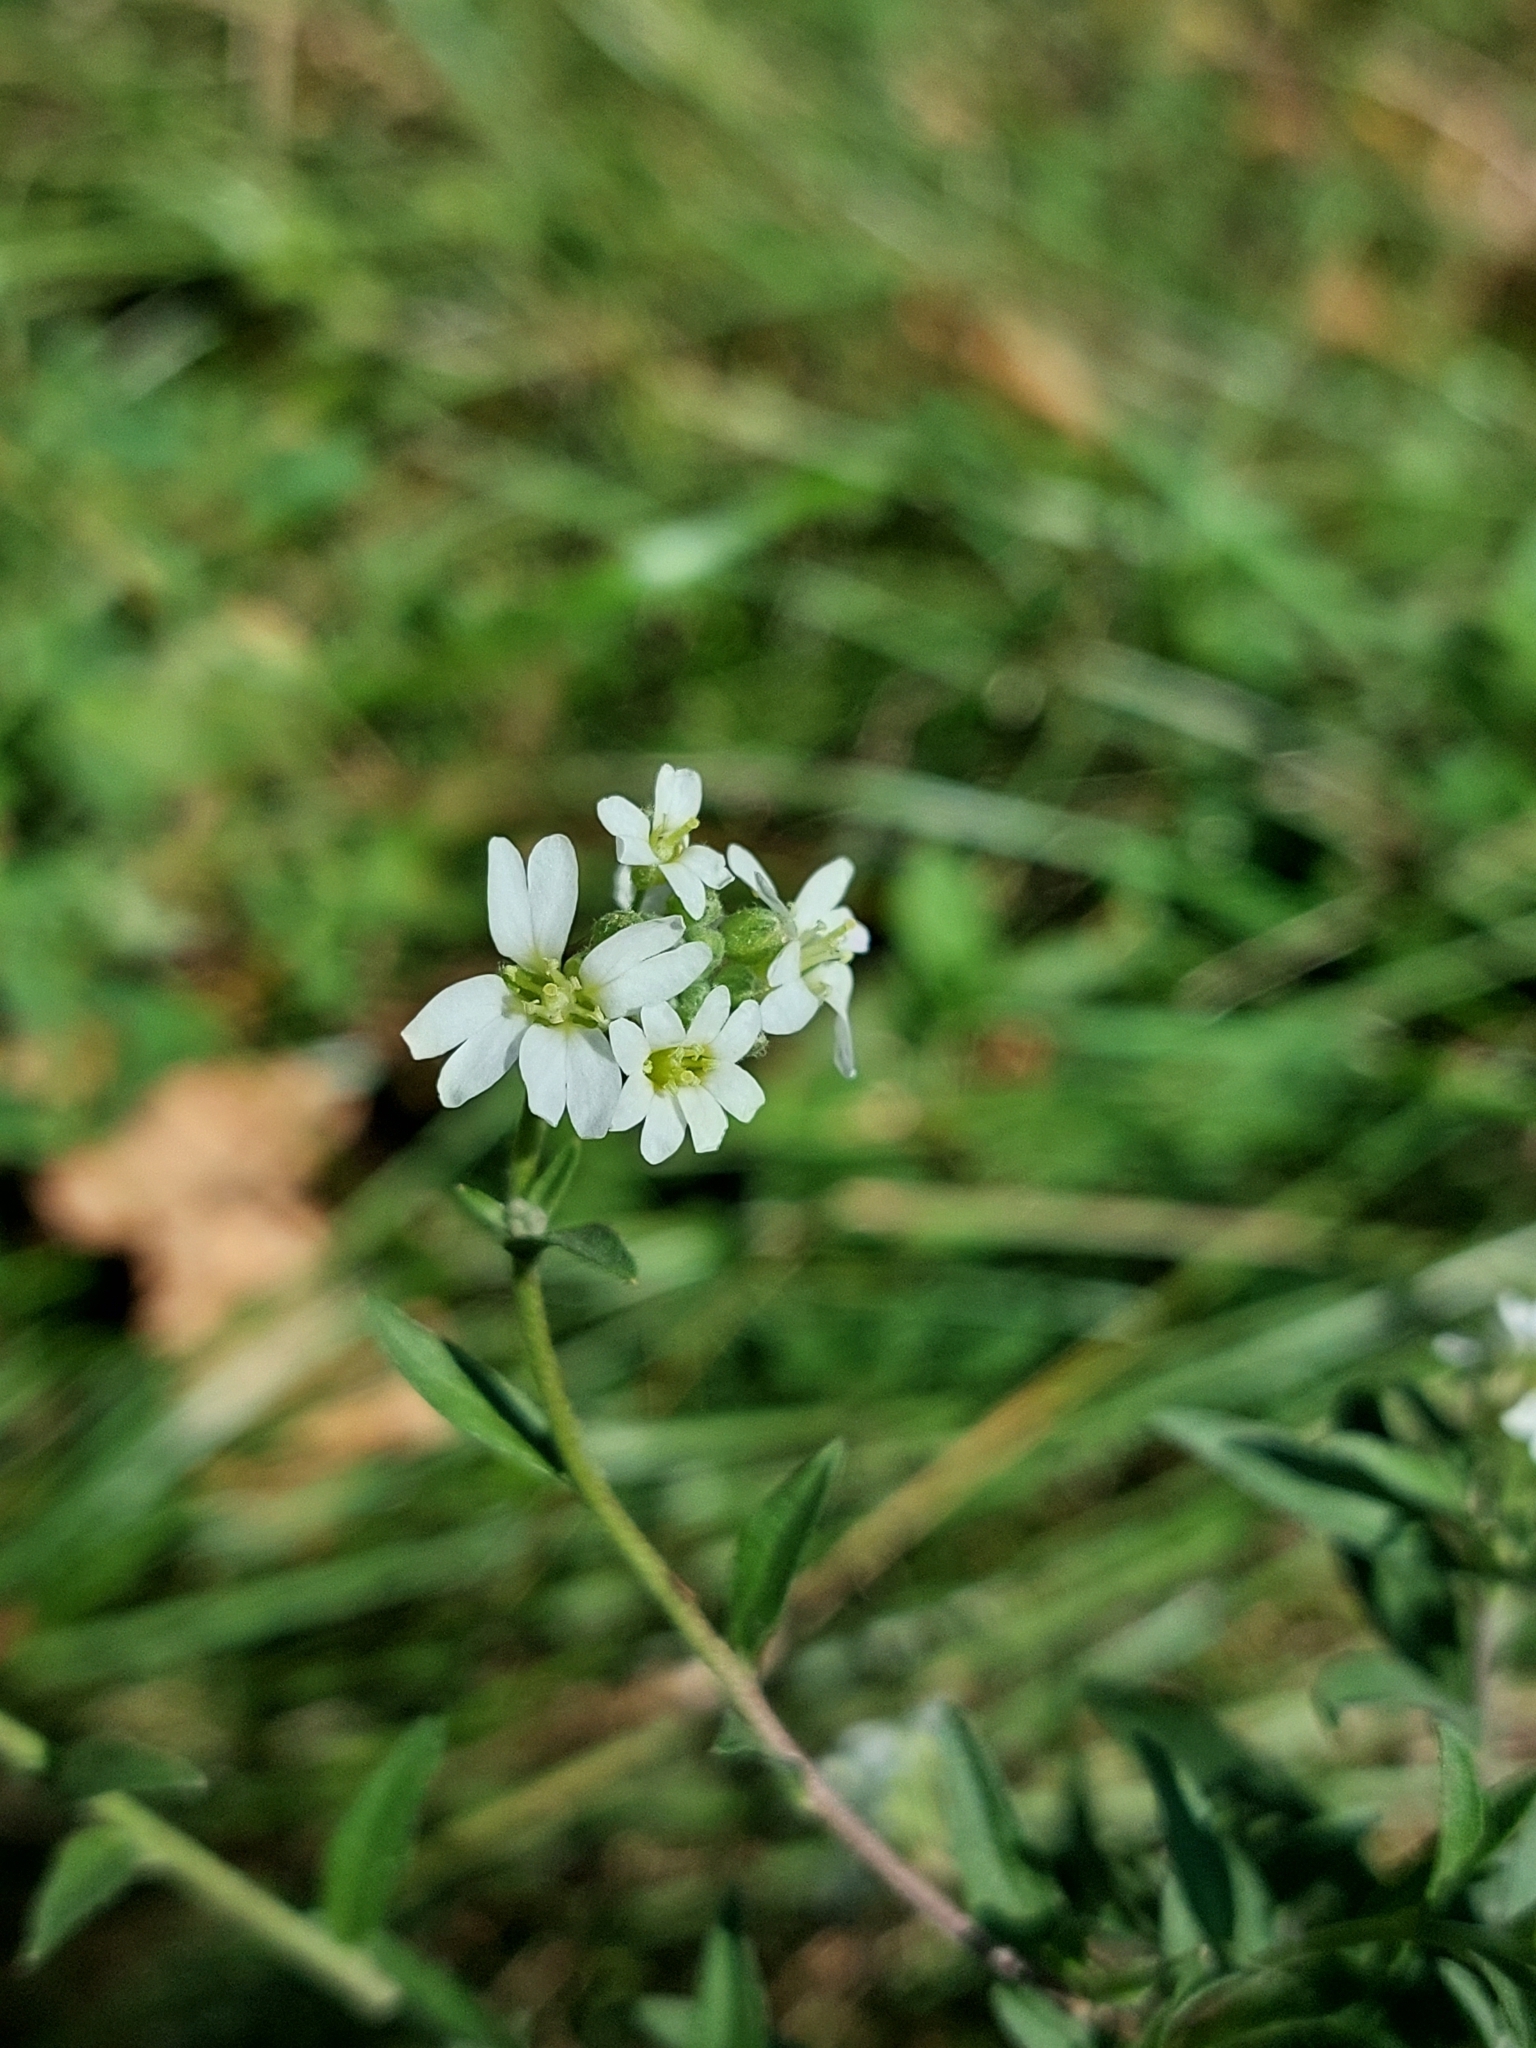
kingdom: Plantae
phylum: Tracheophyta
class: Magnoliopsida
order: Brassicales
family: Brassicaceae
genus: Berteroa
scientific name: Berteroa incana
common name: Hoary alison
